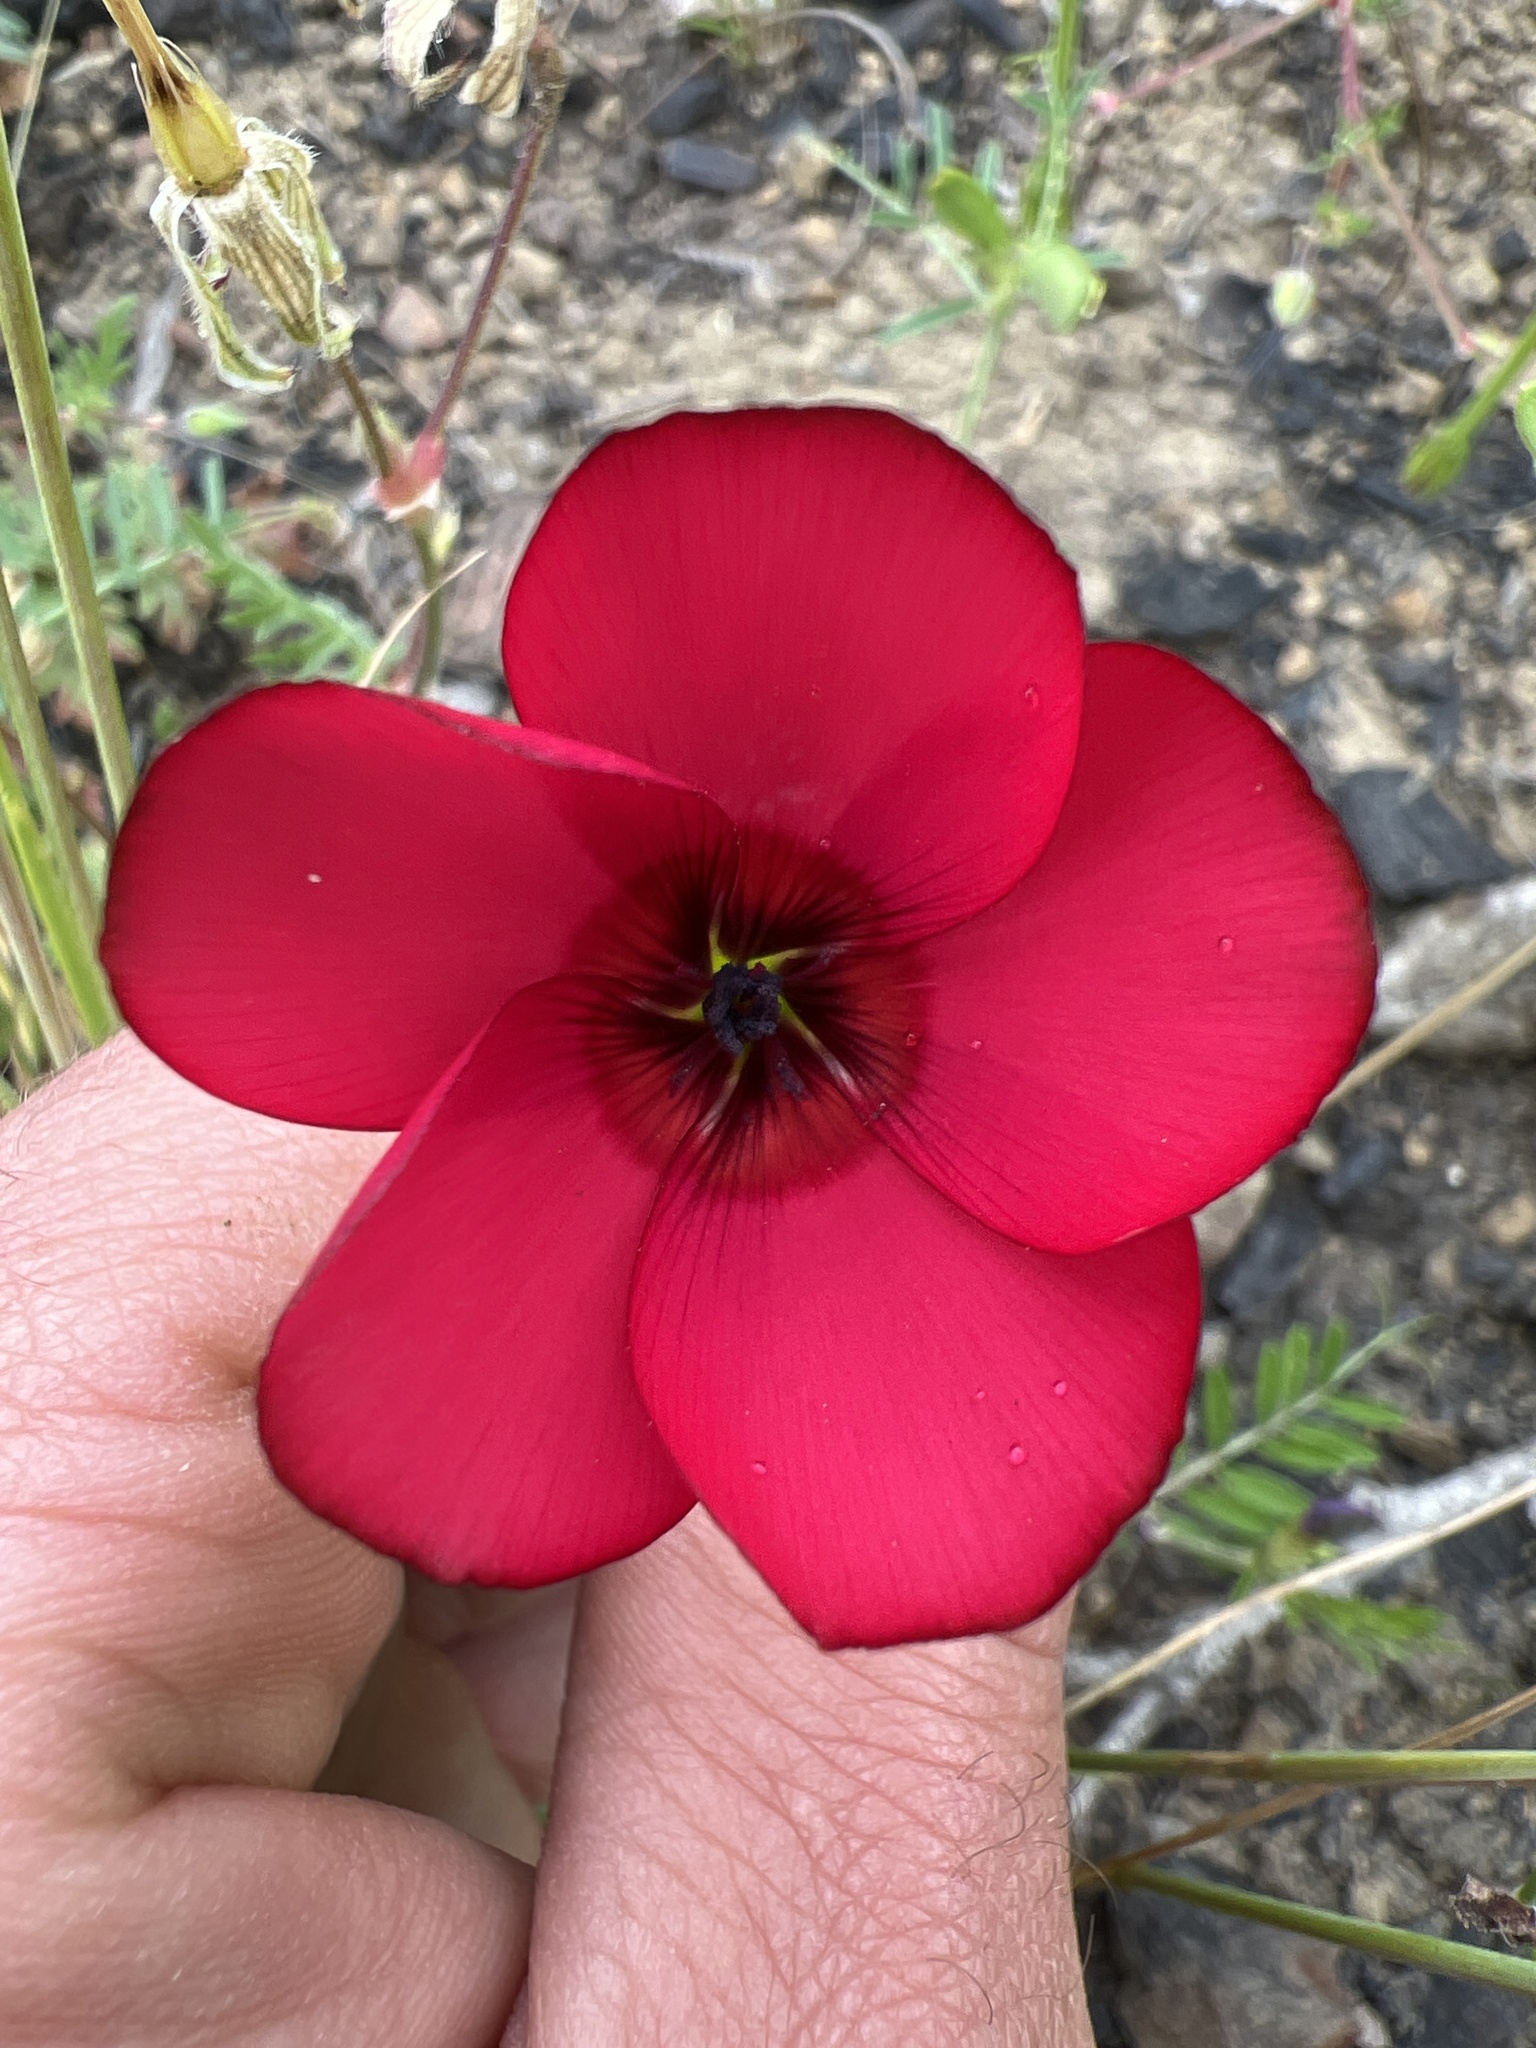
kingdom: Plantae
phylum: Tracheophyta
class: Magnoliopsida
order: Malpighiales
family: Linaceae
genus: Linum
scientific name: Linum grandiflorum
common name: Crimson flax
